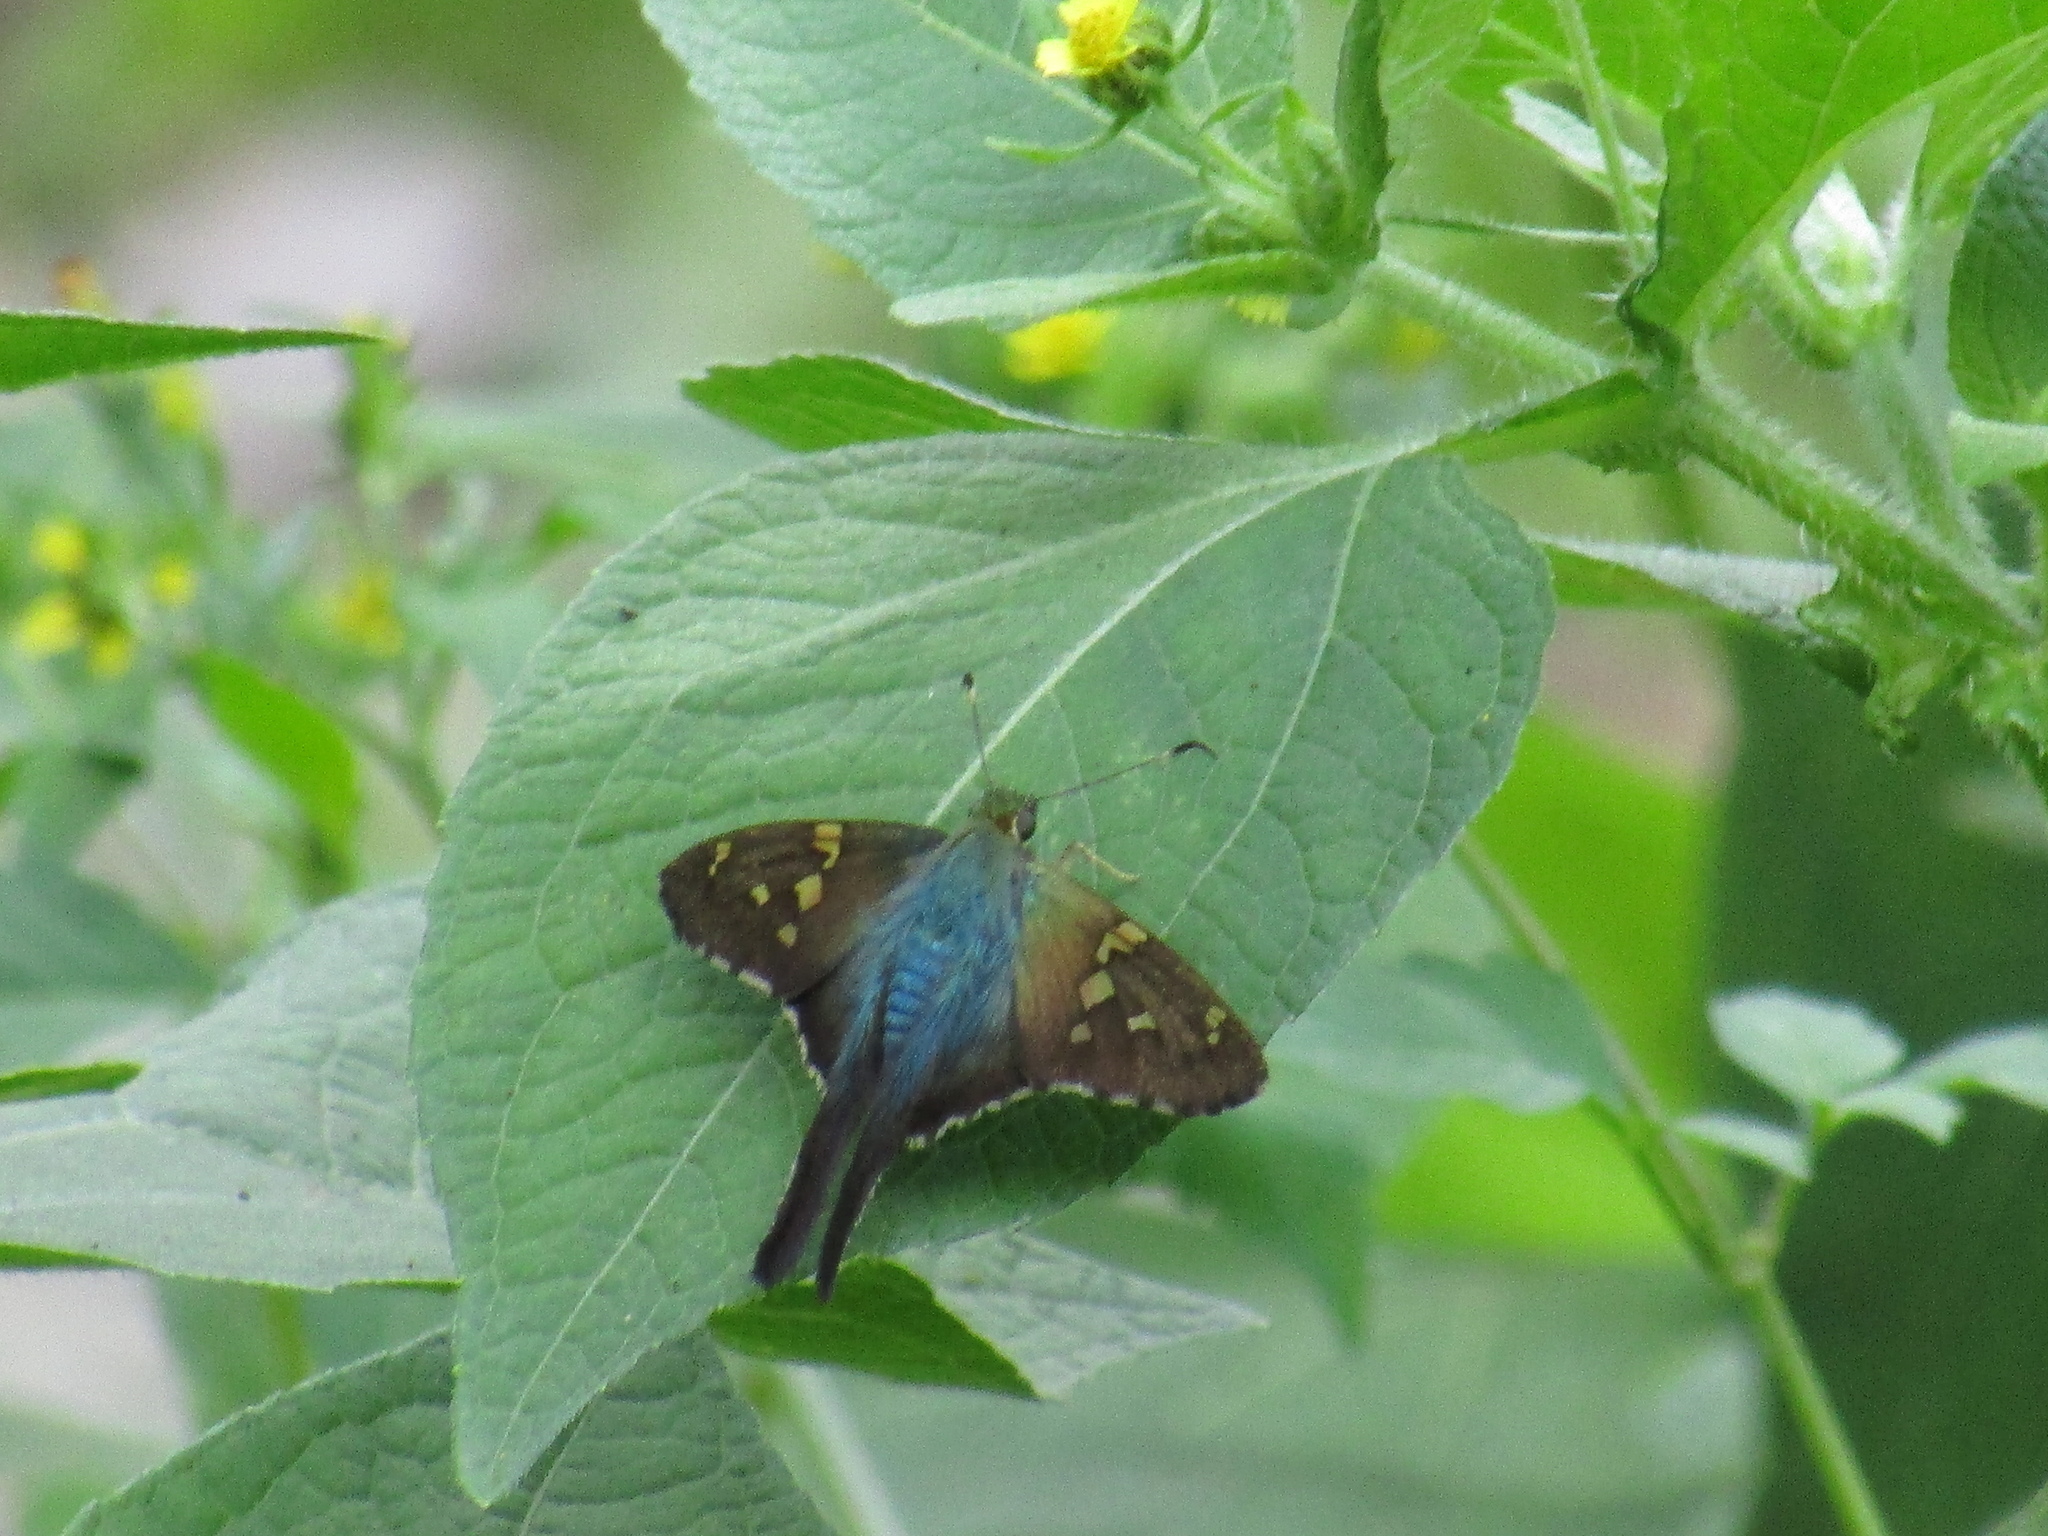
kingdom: Animalia
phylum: Arthropoda
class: Insecta
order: Lepidoptera
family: Hesperiidae
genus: Urbanus
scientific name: Urbanus proteus
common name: Long-tailed skipper
